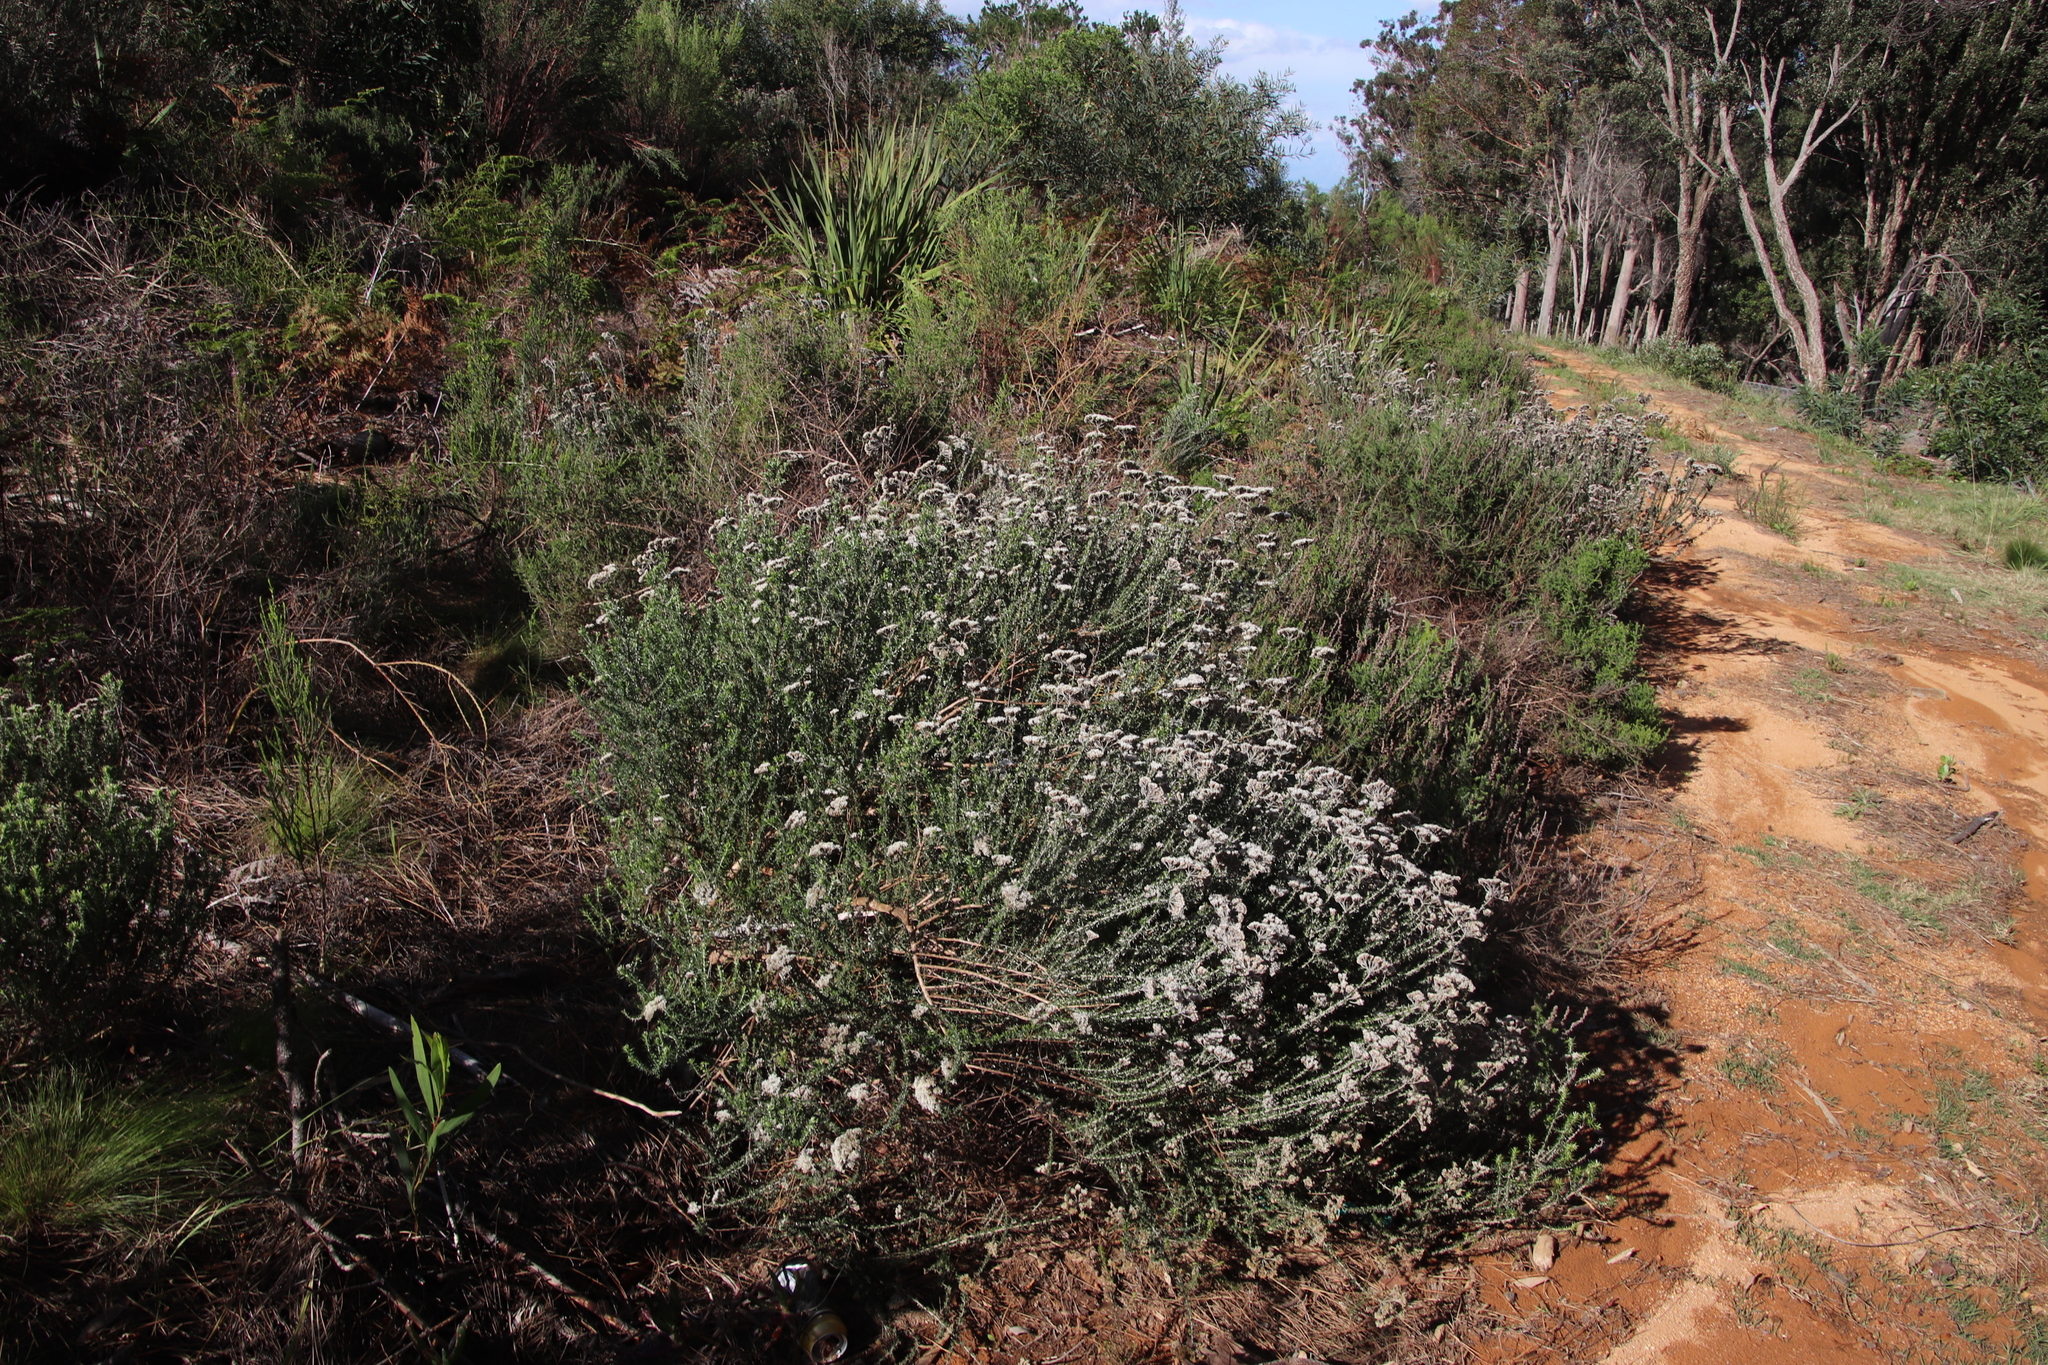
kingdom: Plantae
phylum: Tracheophyta
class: Magnoliopsida
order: Asterales
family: Asteraceae
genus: Metalasia
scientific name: Metalasia densa
